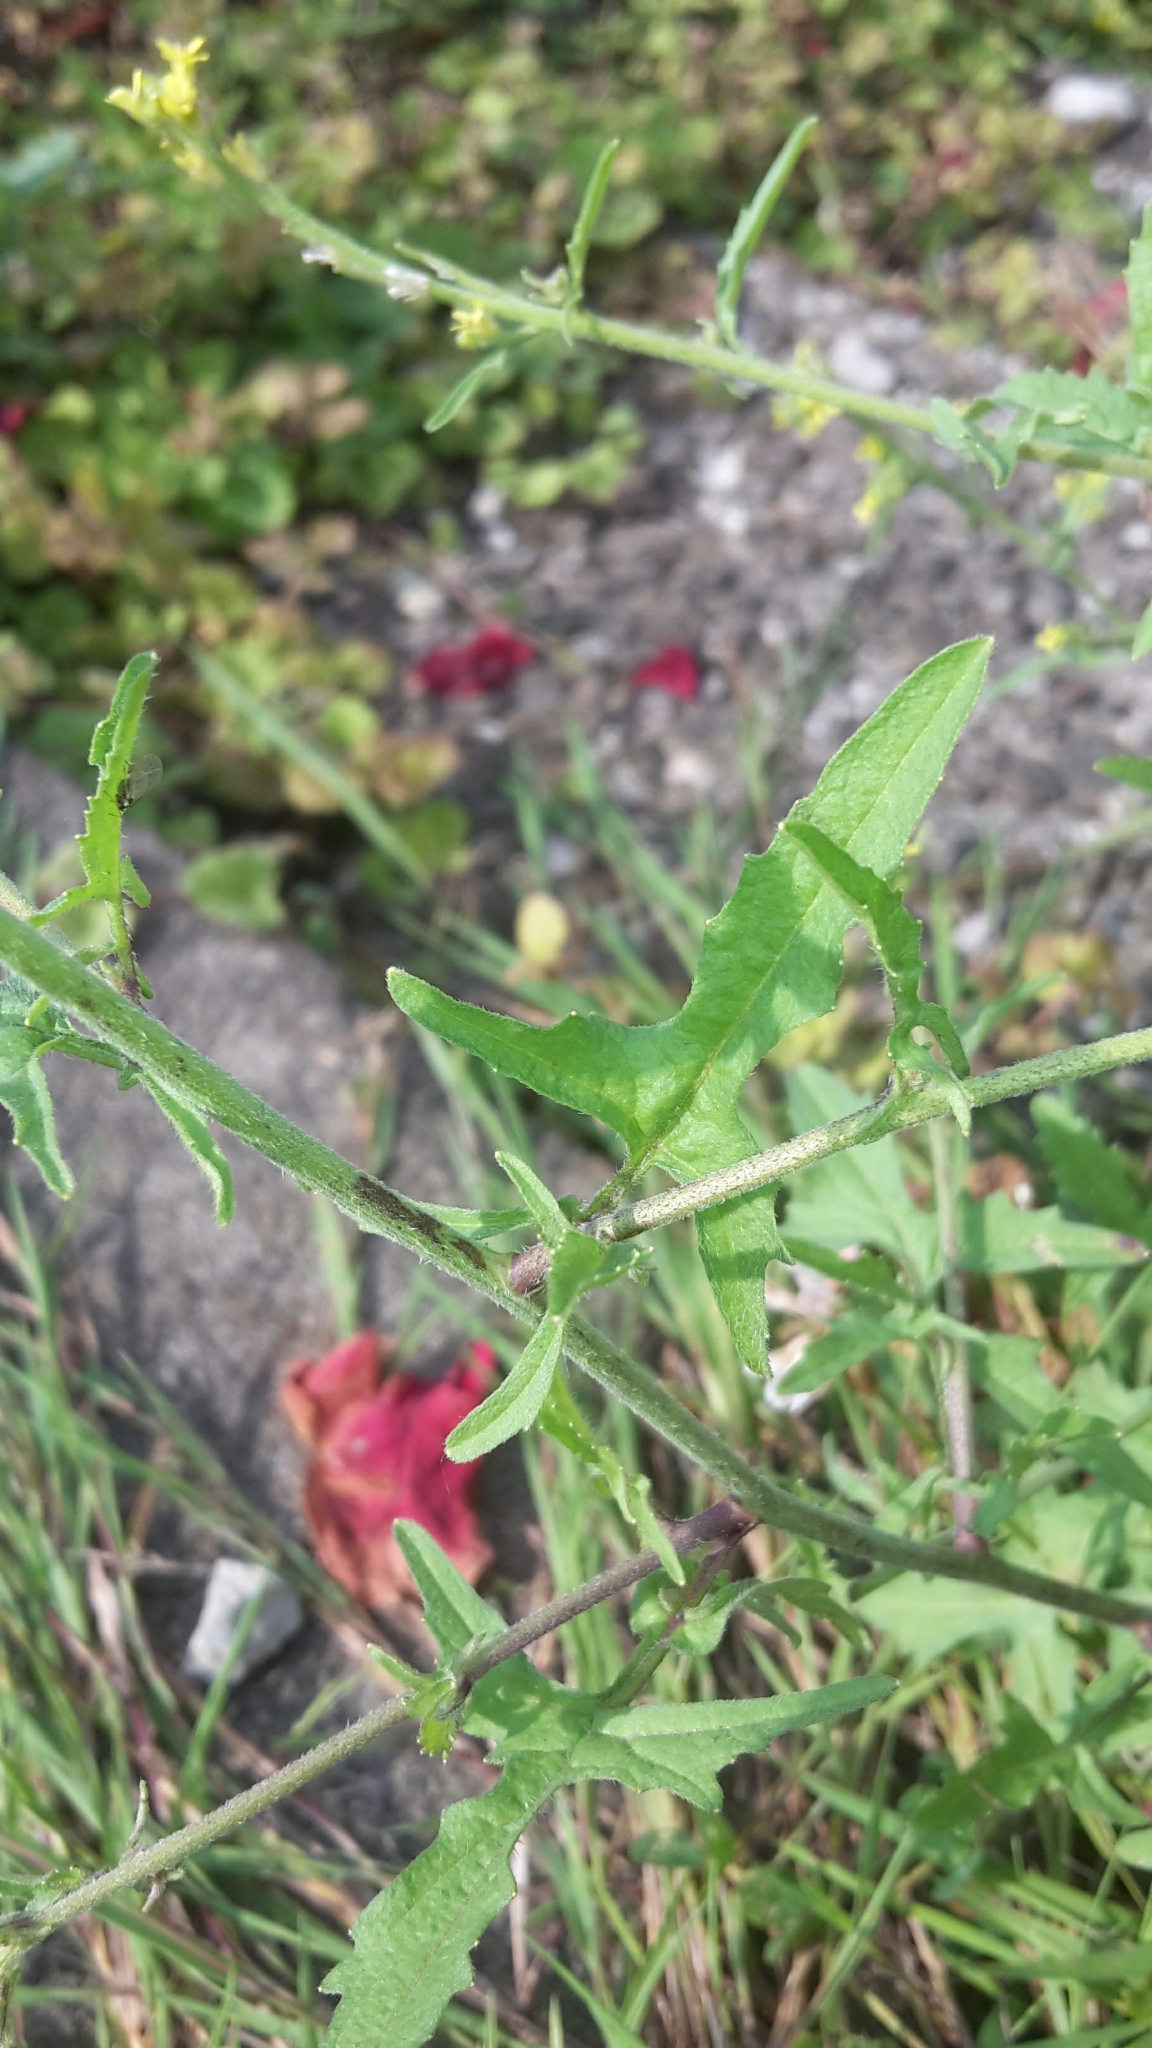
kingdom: Plantae
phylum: Tracheophyta
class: Magnoliopsida
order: Brassicales
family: Brassicaceae
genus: Sisymbrium
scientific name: Sisymbrium officinale
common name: Hedge mustard
